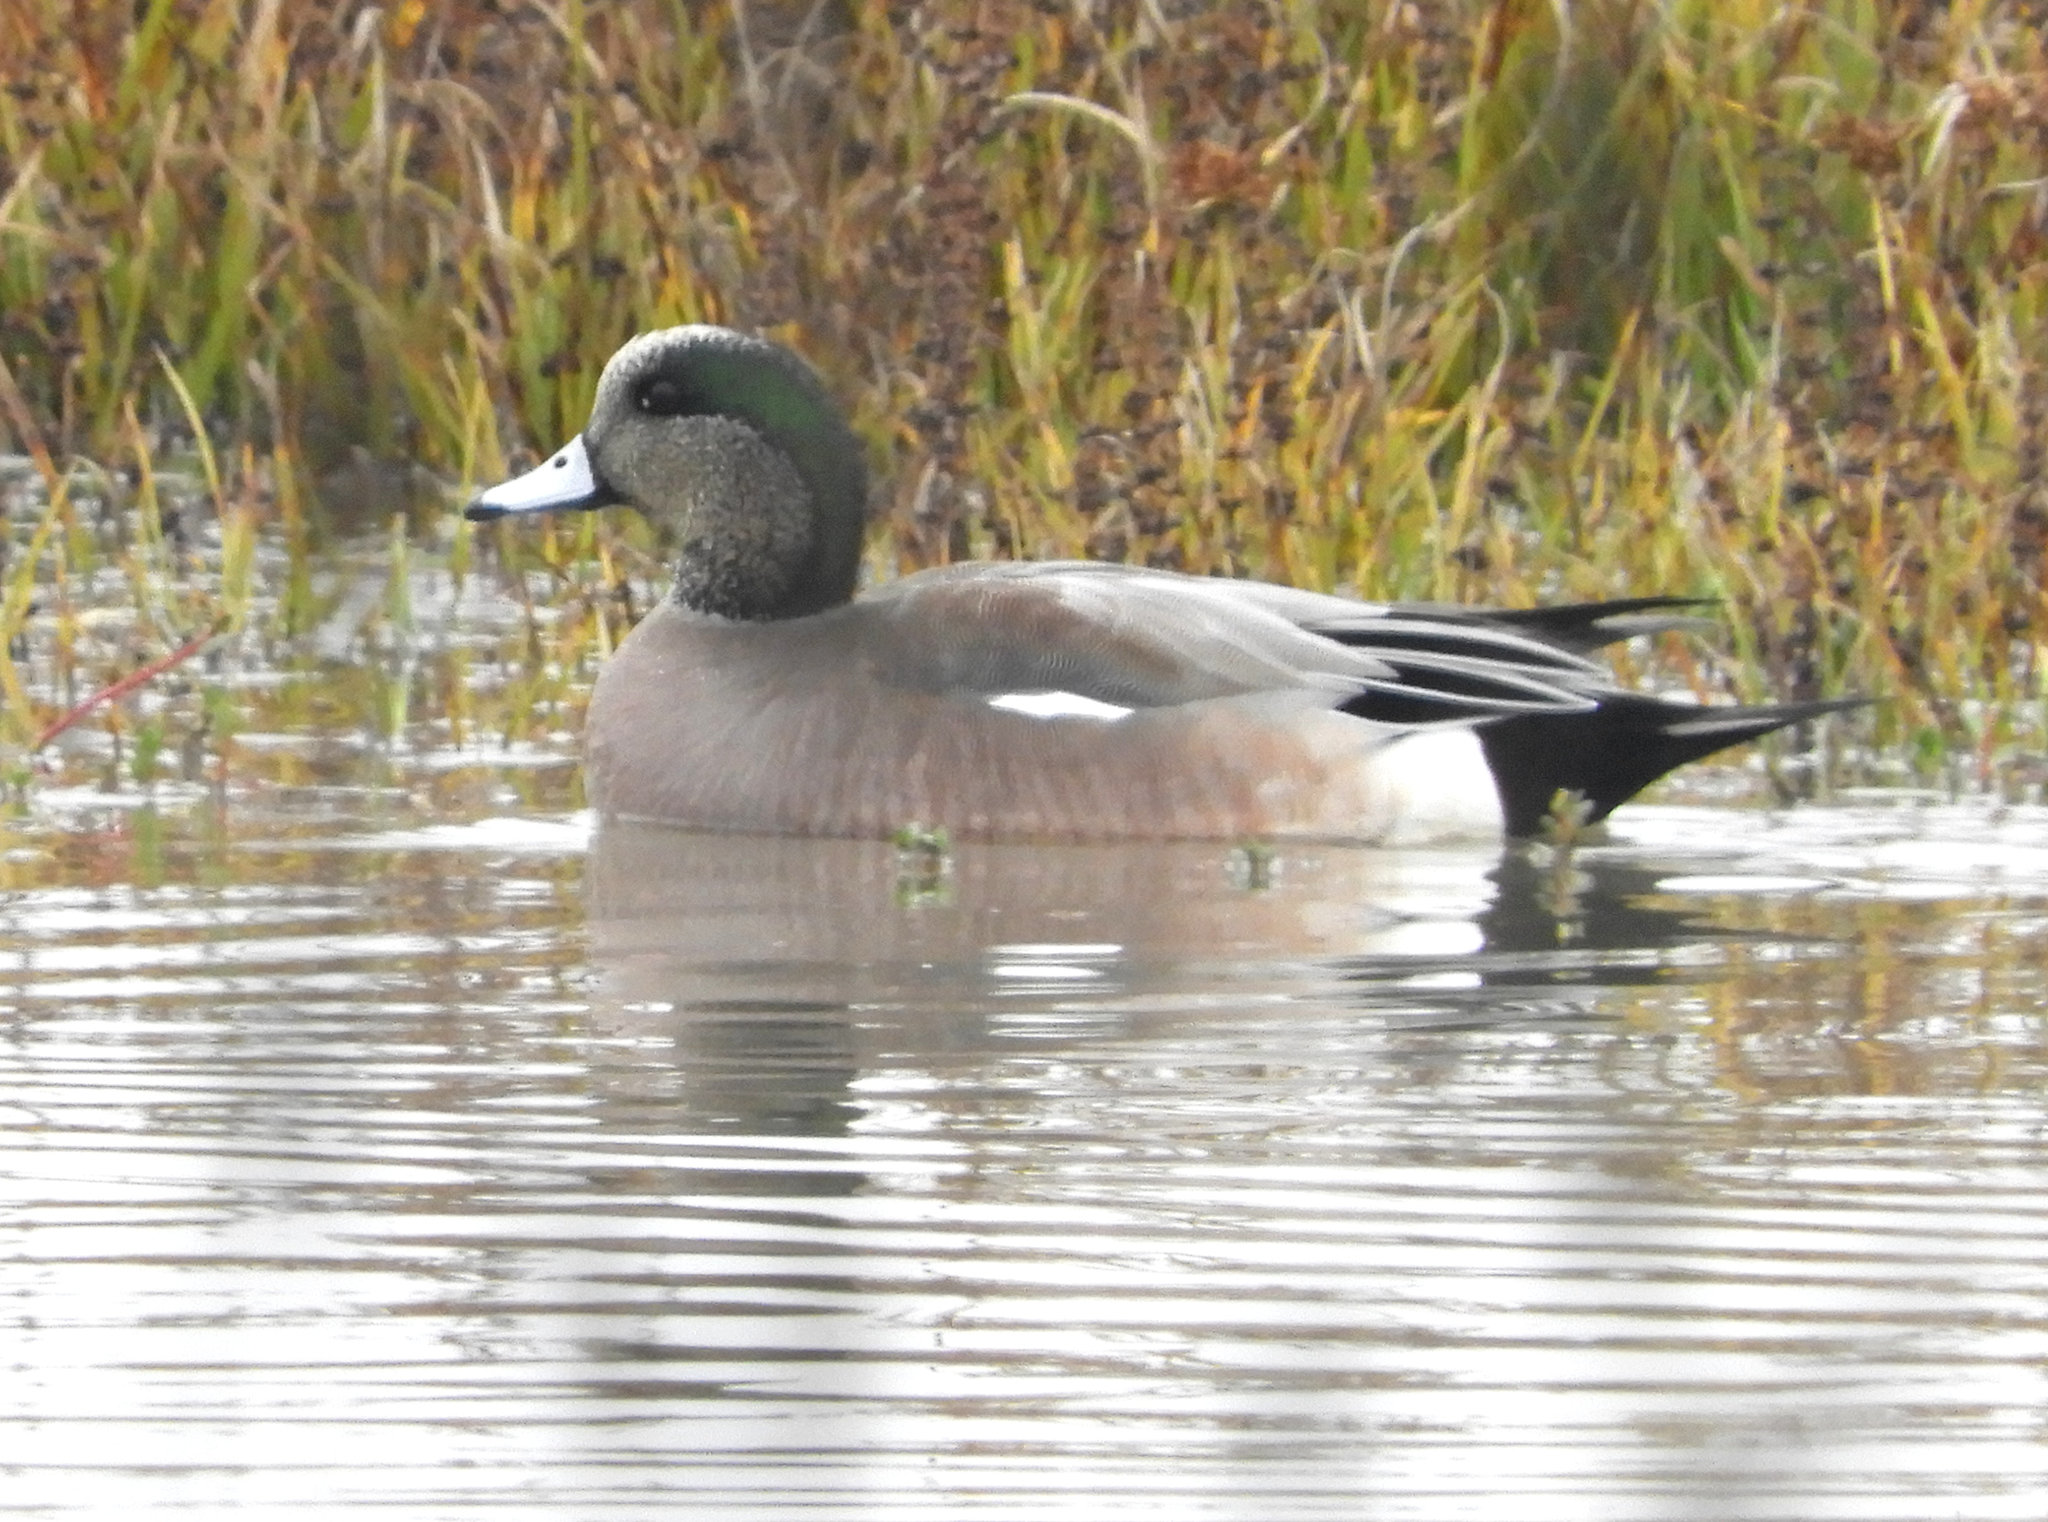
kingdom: Animalia
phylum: Chordata
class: Aves
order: Anseriformes
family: Anatidae
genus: Mareca
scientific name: Mareca americana
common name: American wigeon
